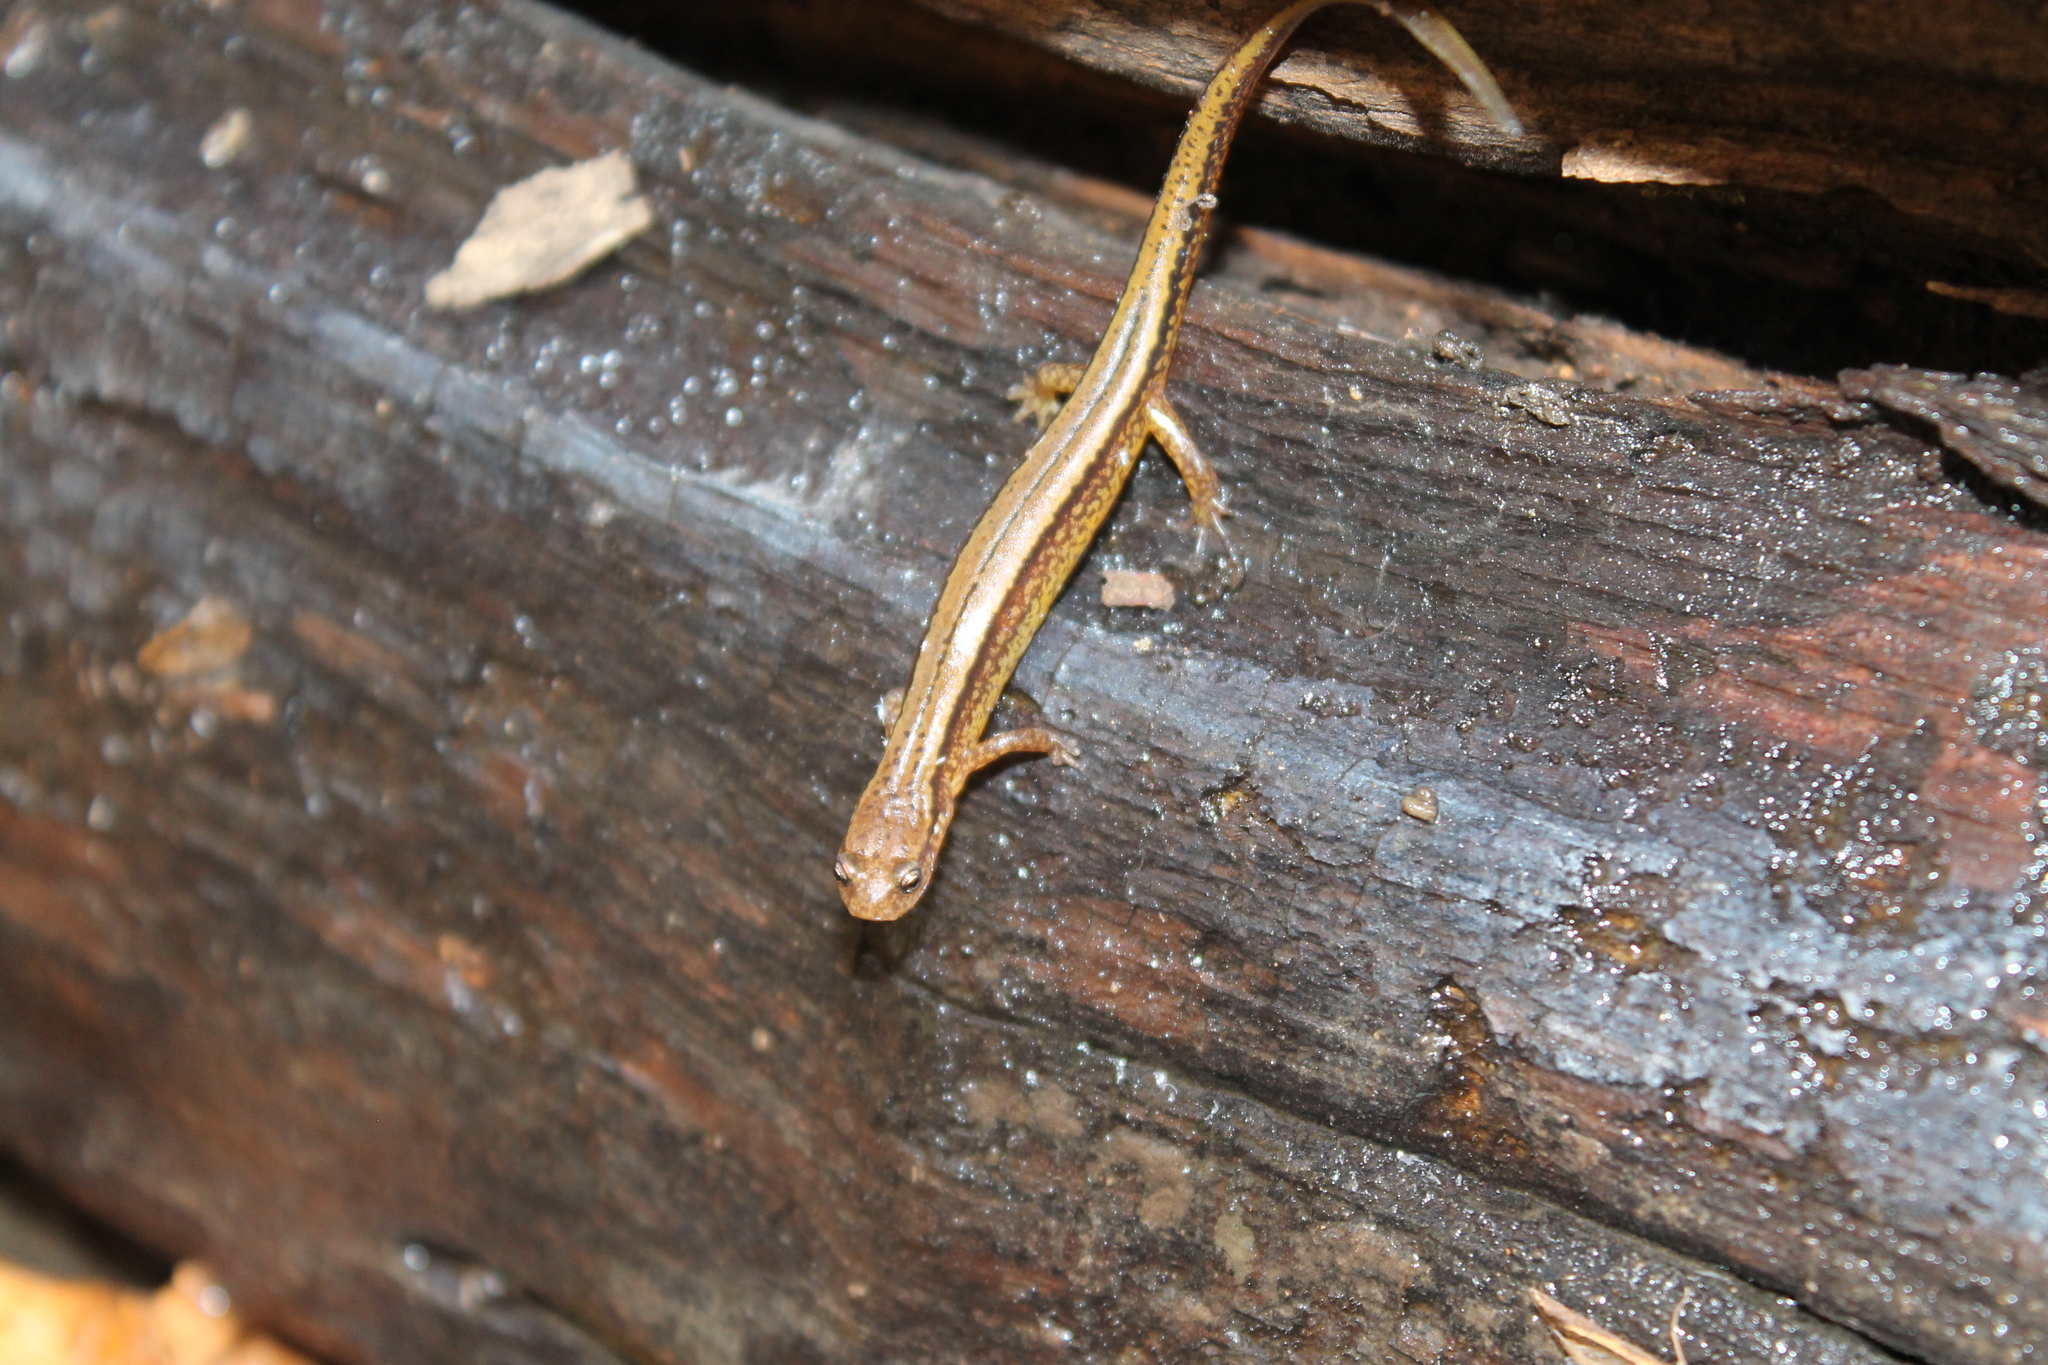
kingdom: Animalia
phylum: Chordata
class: Amphibia
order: Caudata
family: Plethodontidae
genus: Eurycea
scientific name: Eurycea cirrigera
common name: Southern two-lined salamander
